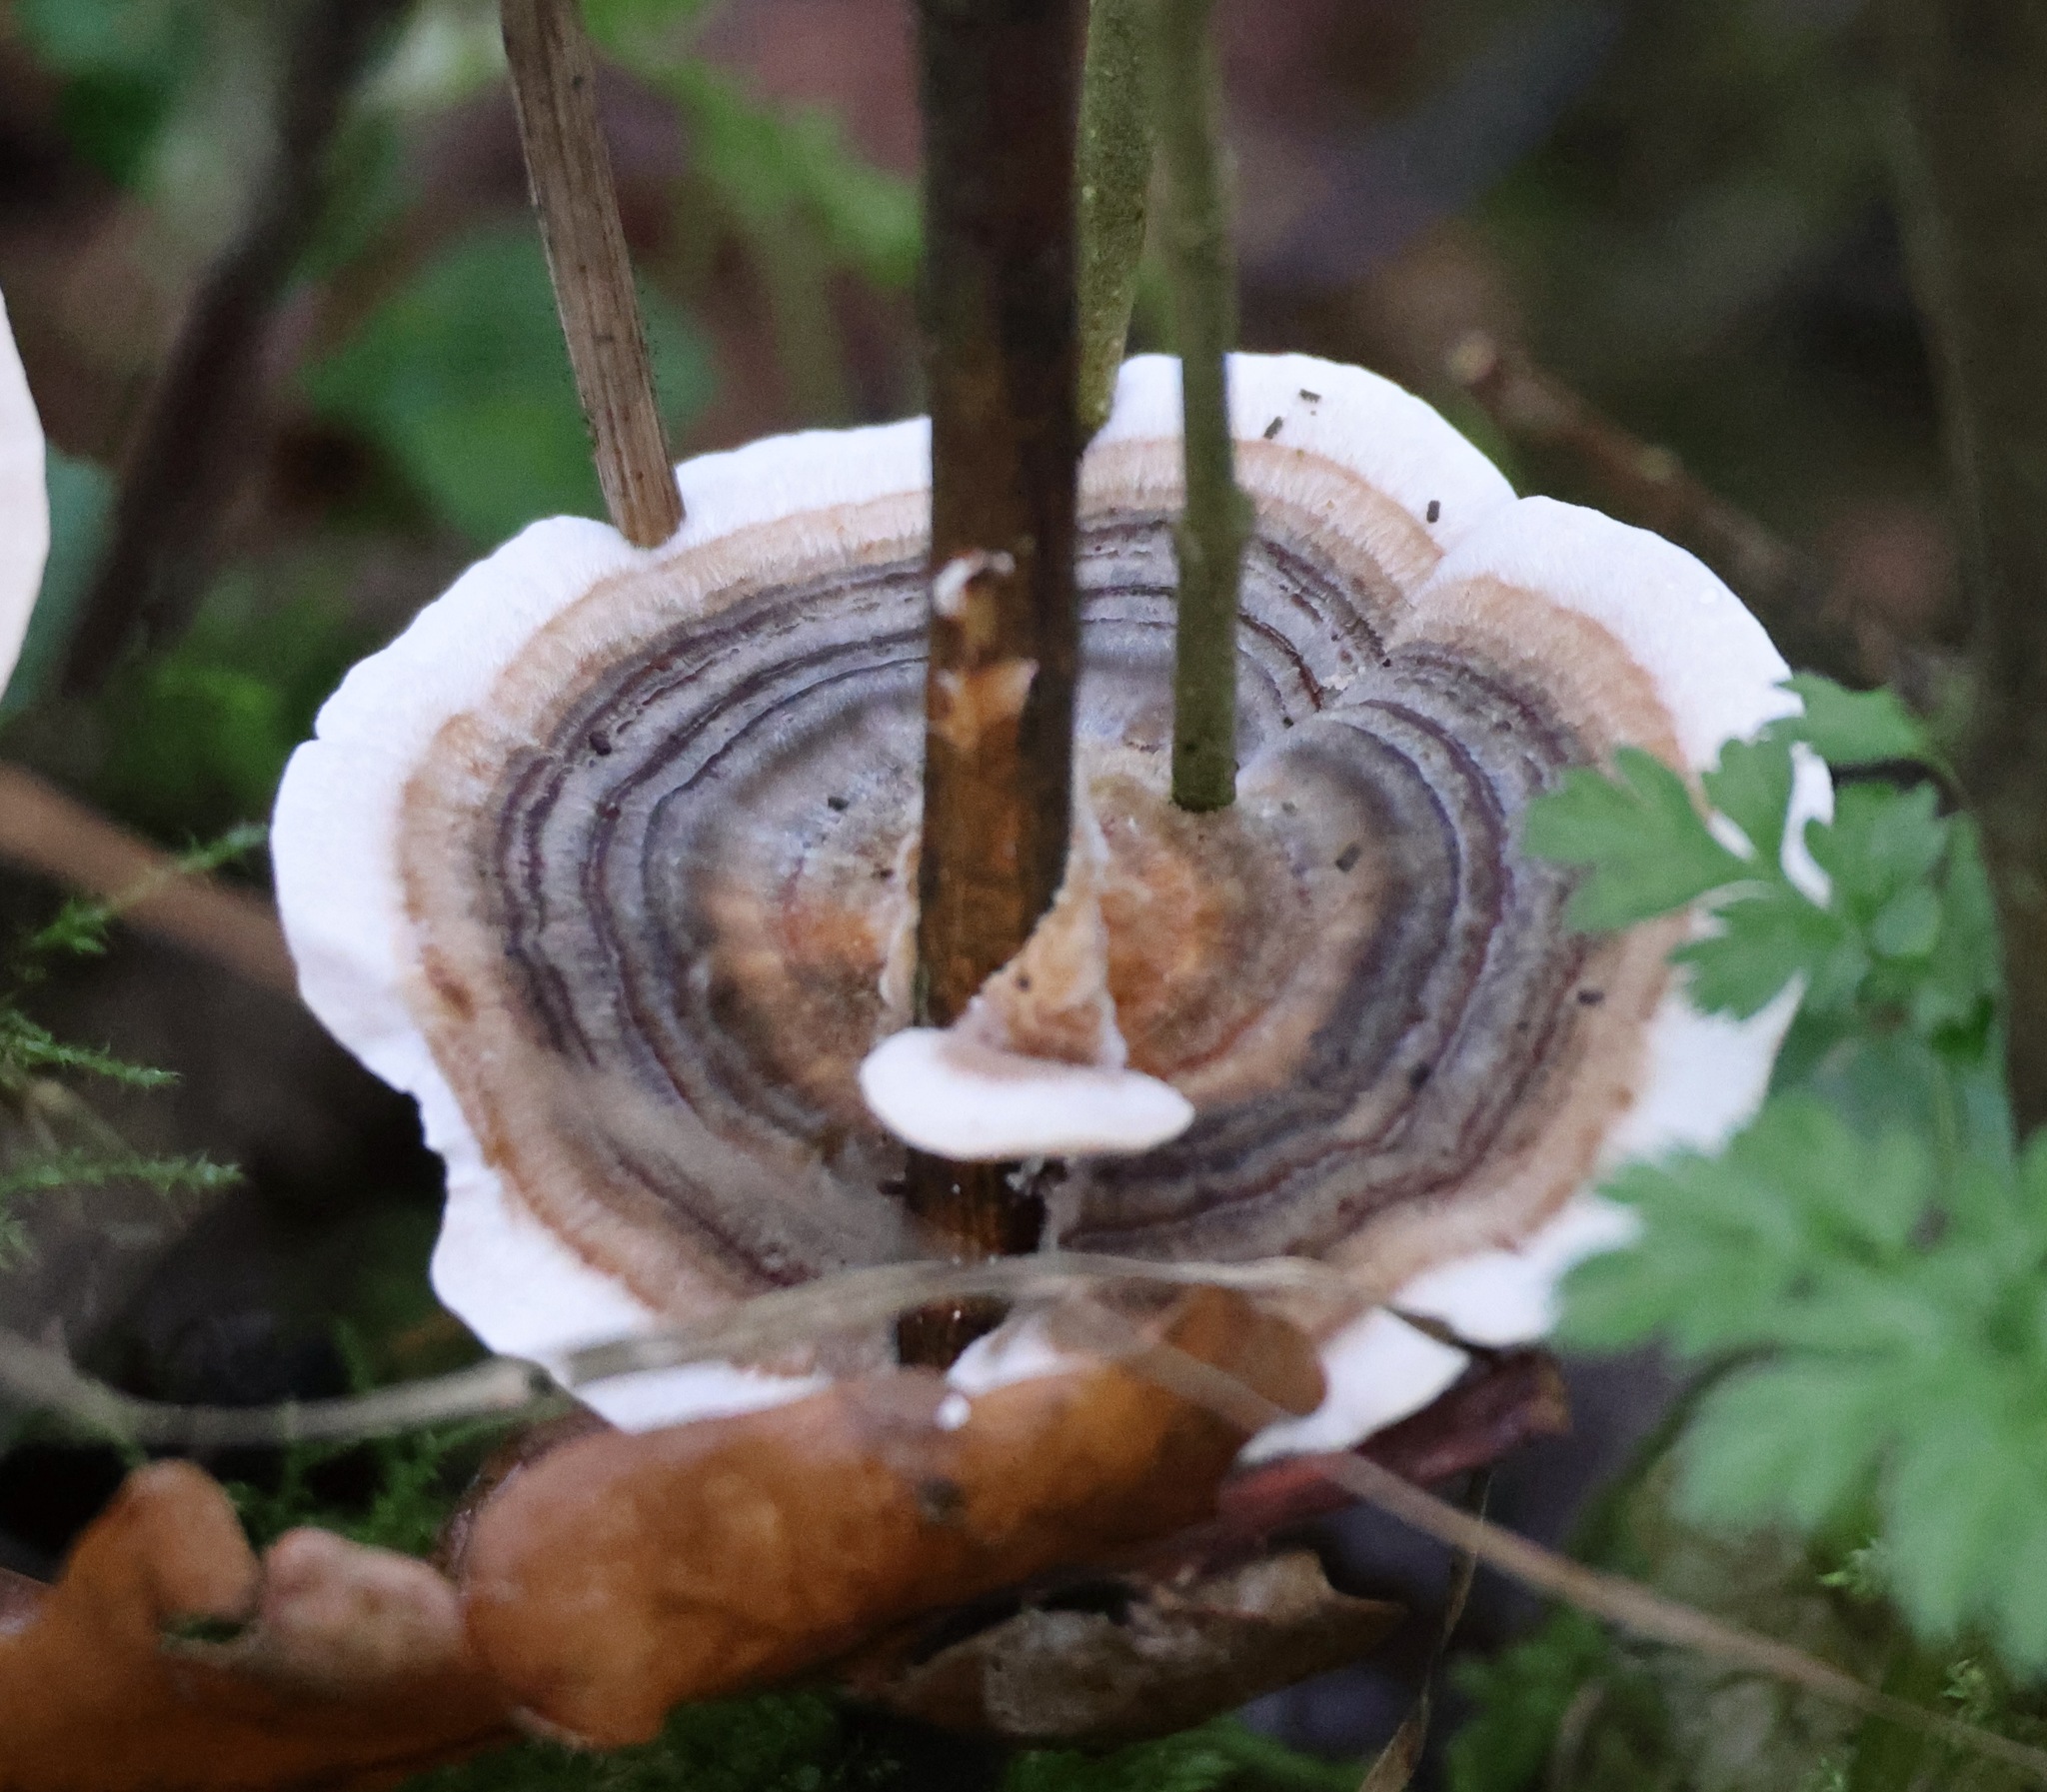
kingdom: Fungi
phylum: Basidiomycota
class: Agaricomycetes
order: Polyporales
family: Polyporaceae
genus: Trametes
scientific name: Trametes versicolor
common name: Turkeytail
